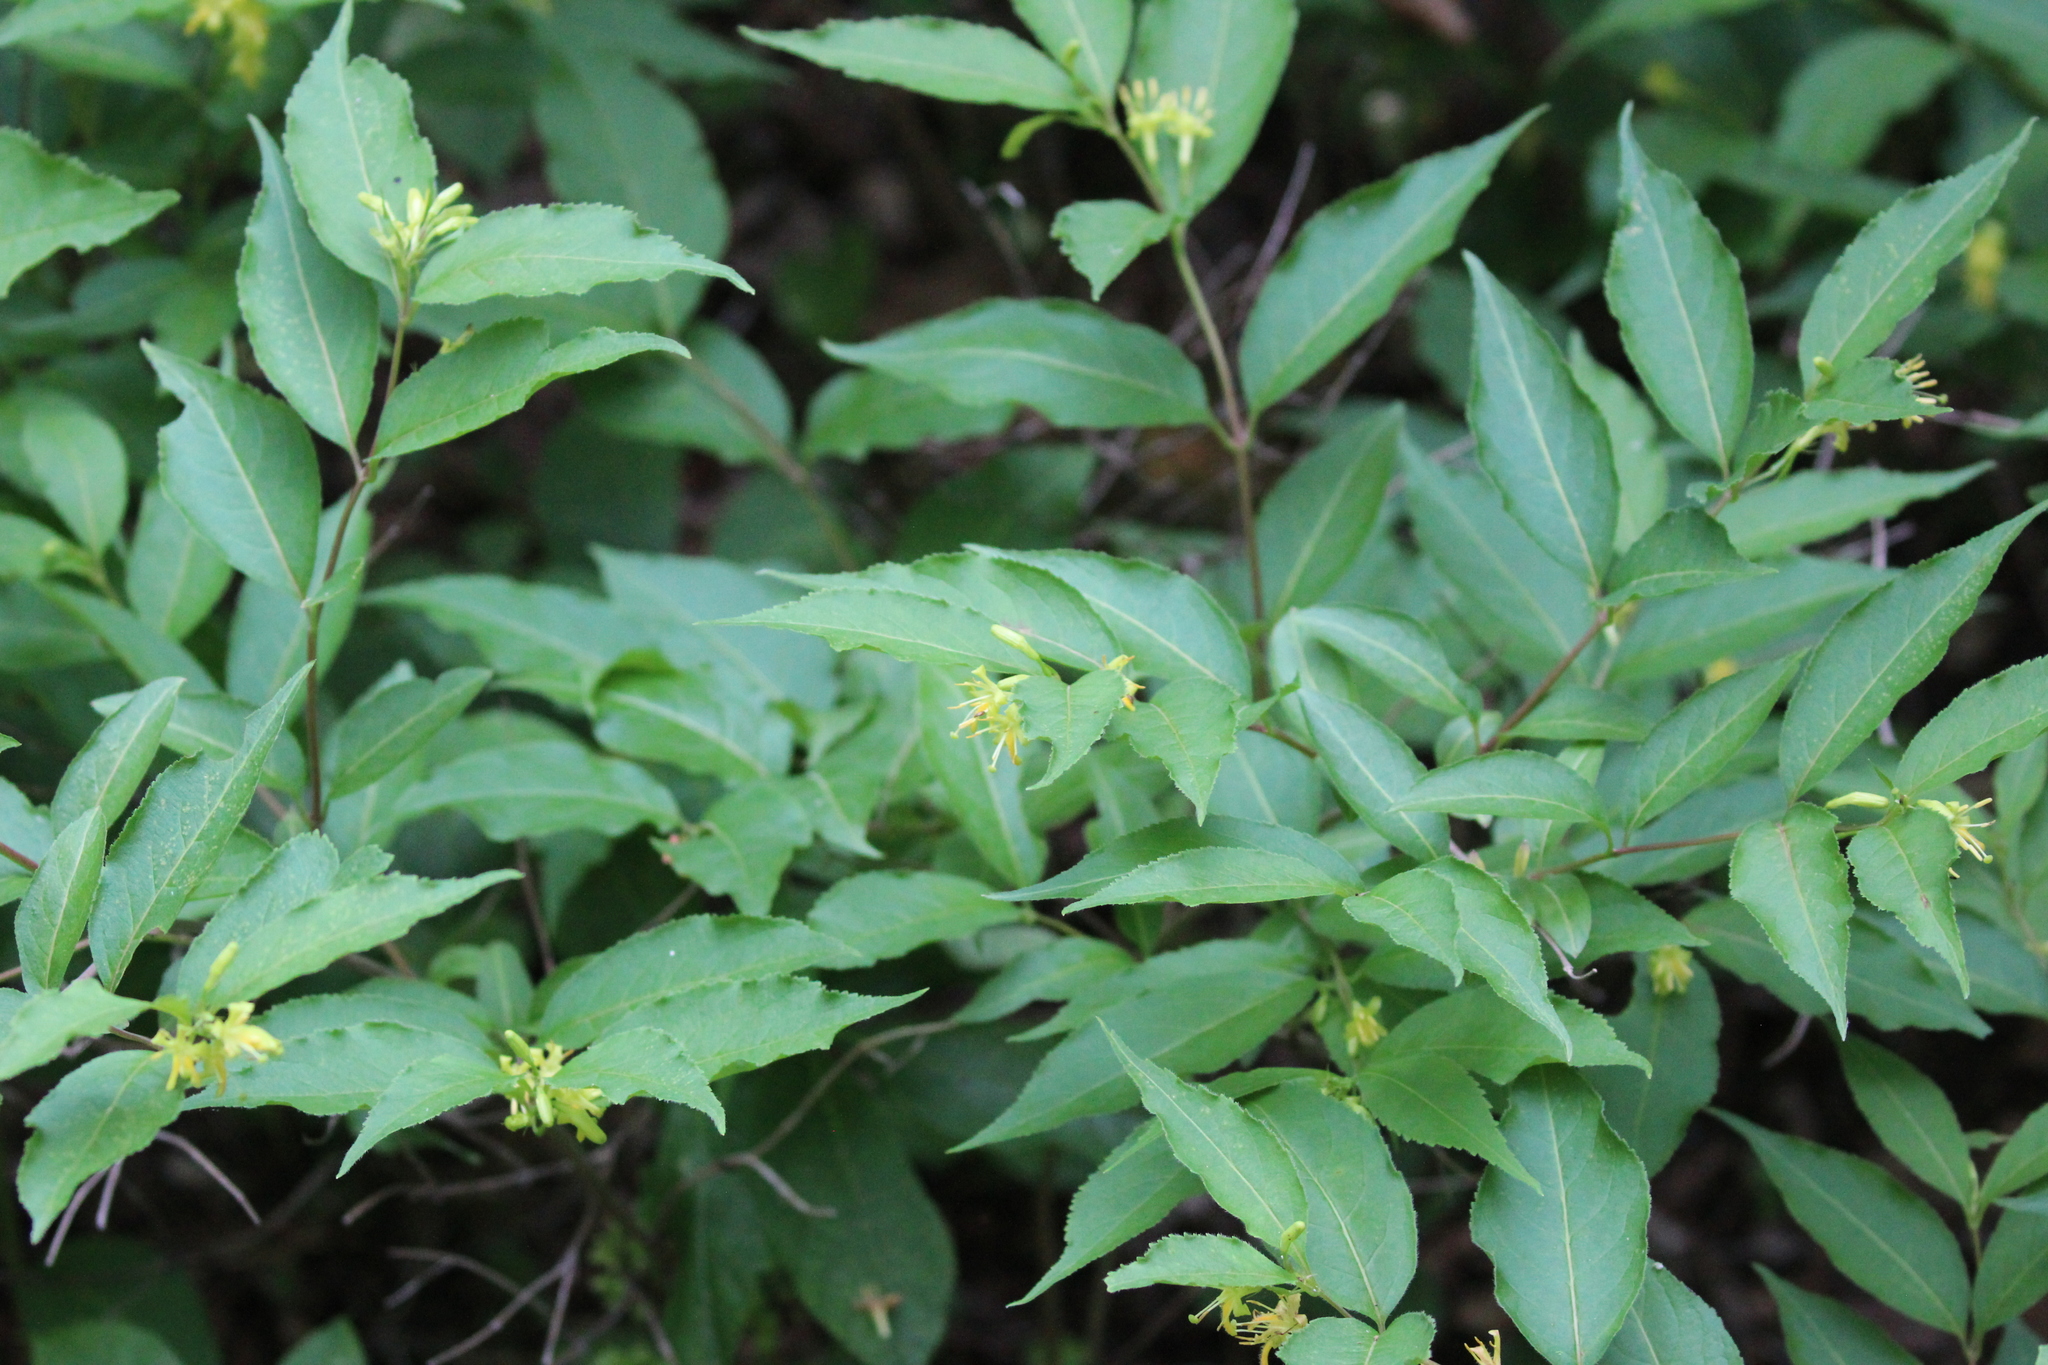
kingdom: Plantae
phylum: Tracheophyta
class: Magnoliopsida
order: Dipsacales
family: Caprifoliaceae
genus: Diervilla
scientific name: Diervilla lonicera
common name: Bush-honeysuckle
